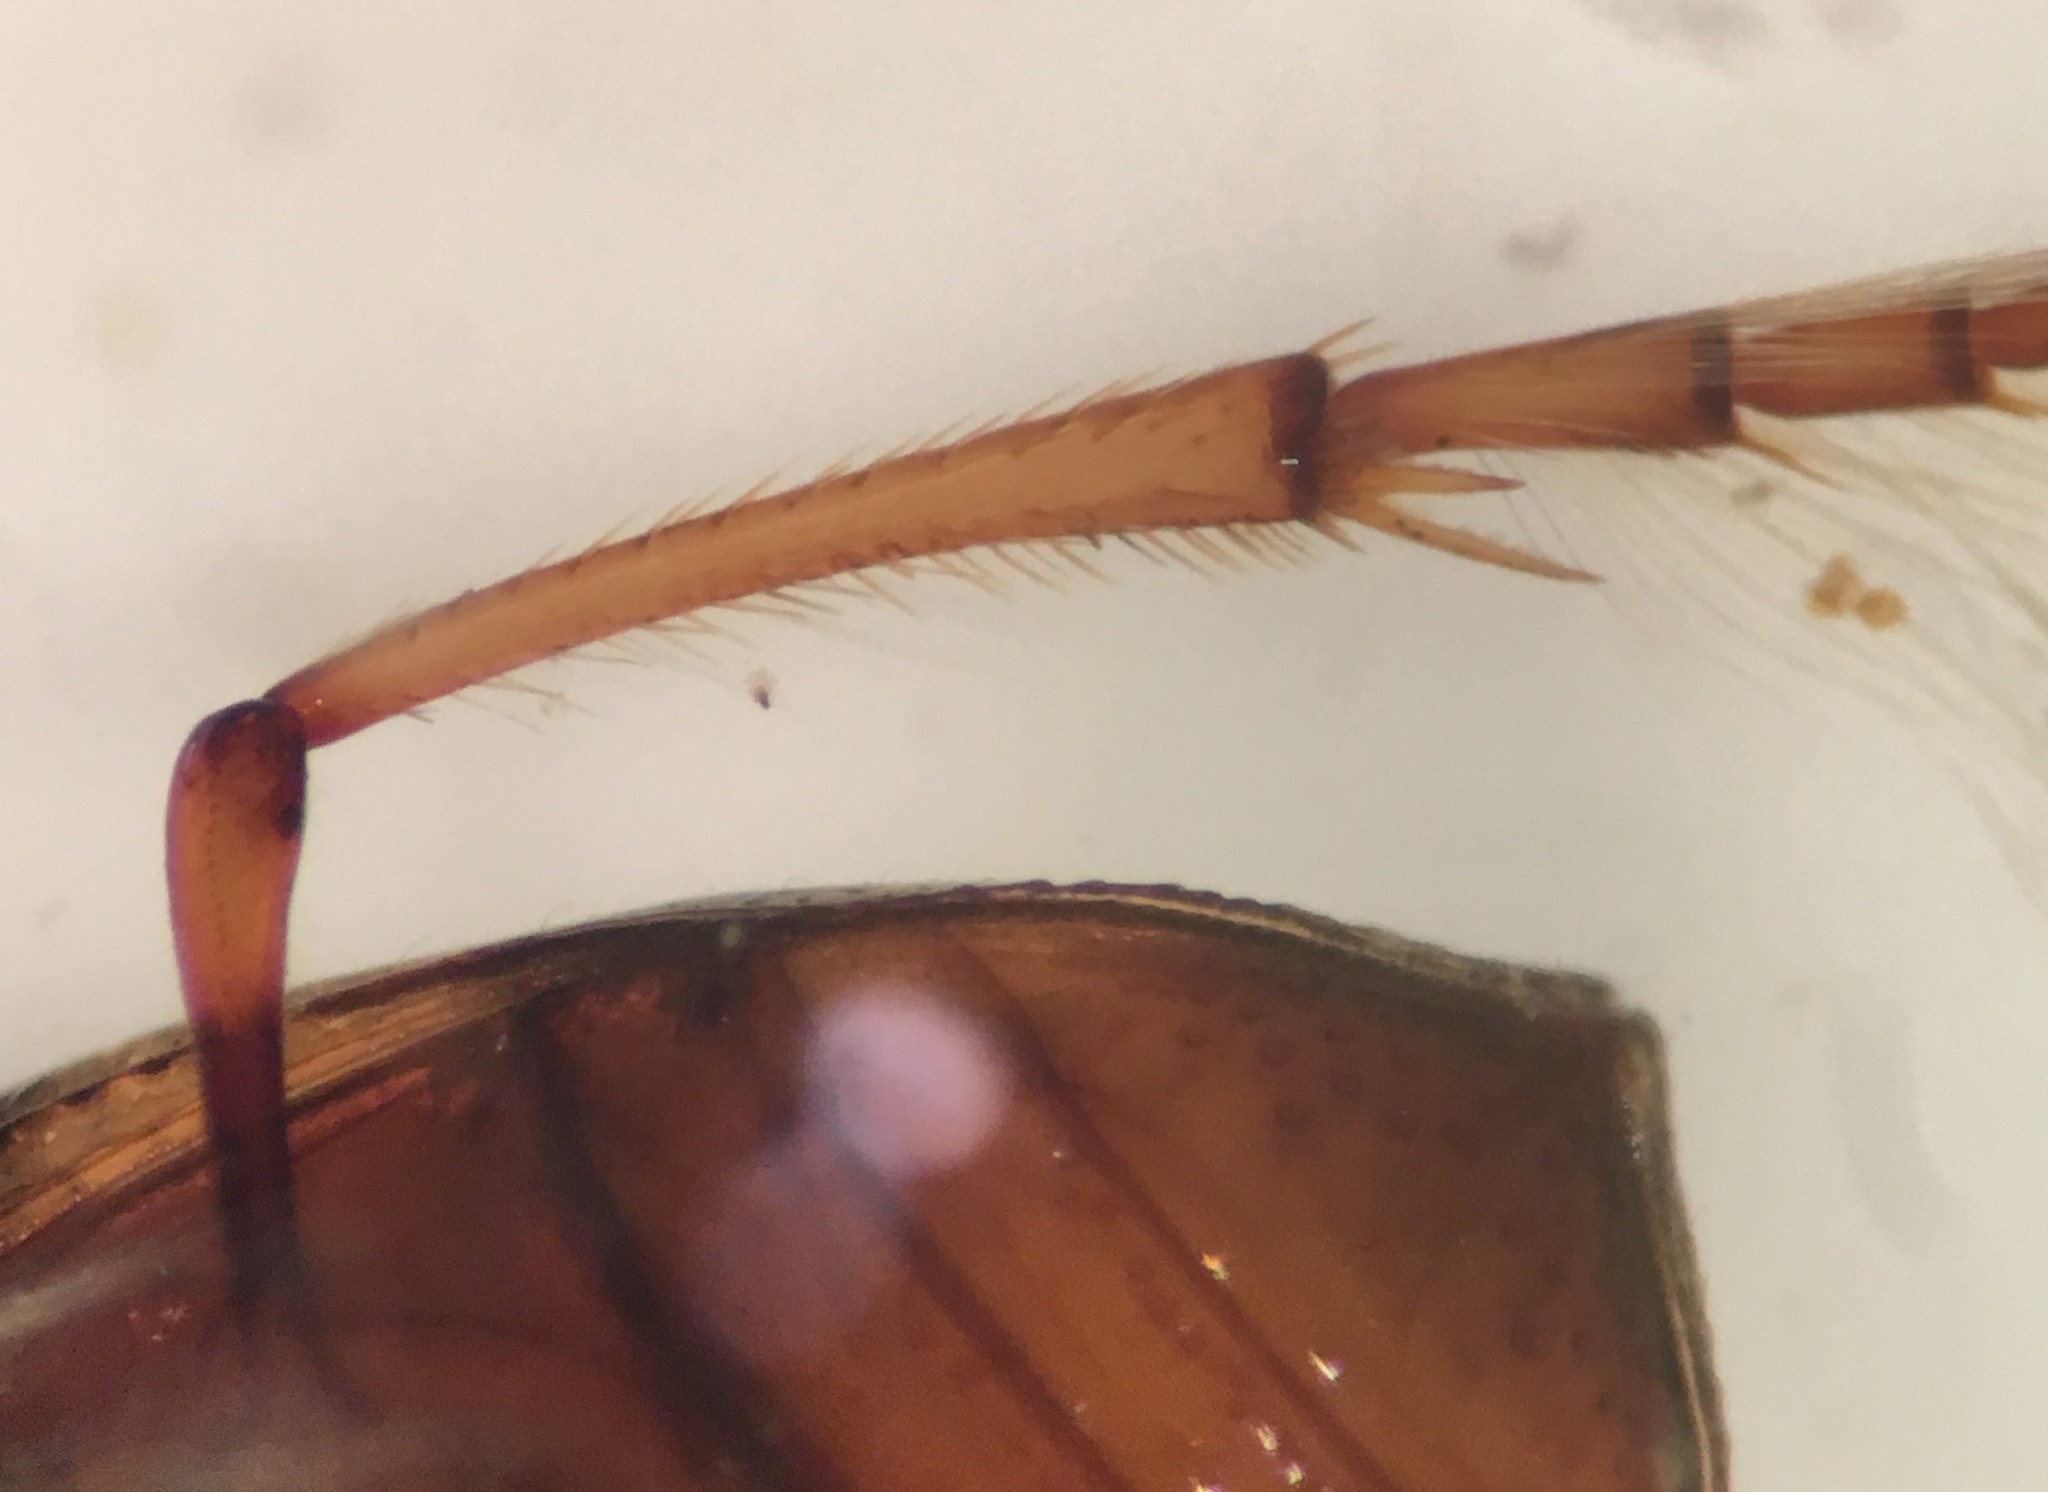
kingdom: Animalia
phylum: Arthropoda
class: Insecta
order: Coleoptera
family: Haliplidae
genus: Haliplus
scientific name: Haliplus fasciatus
